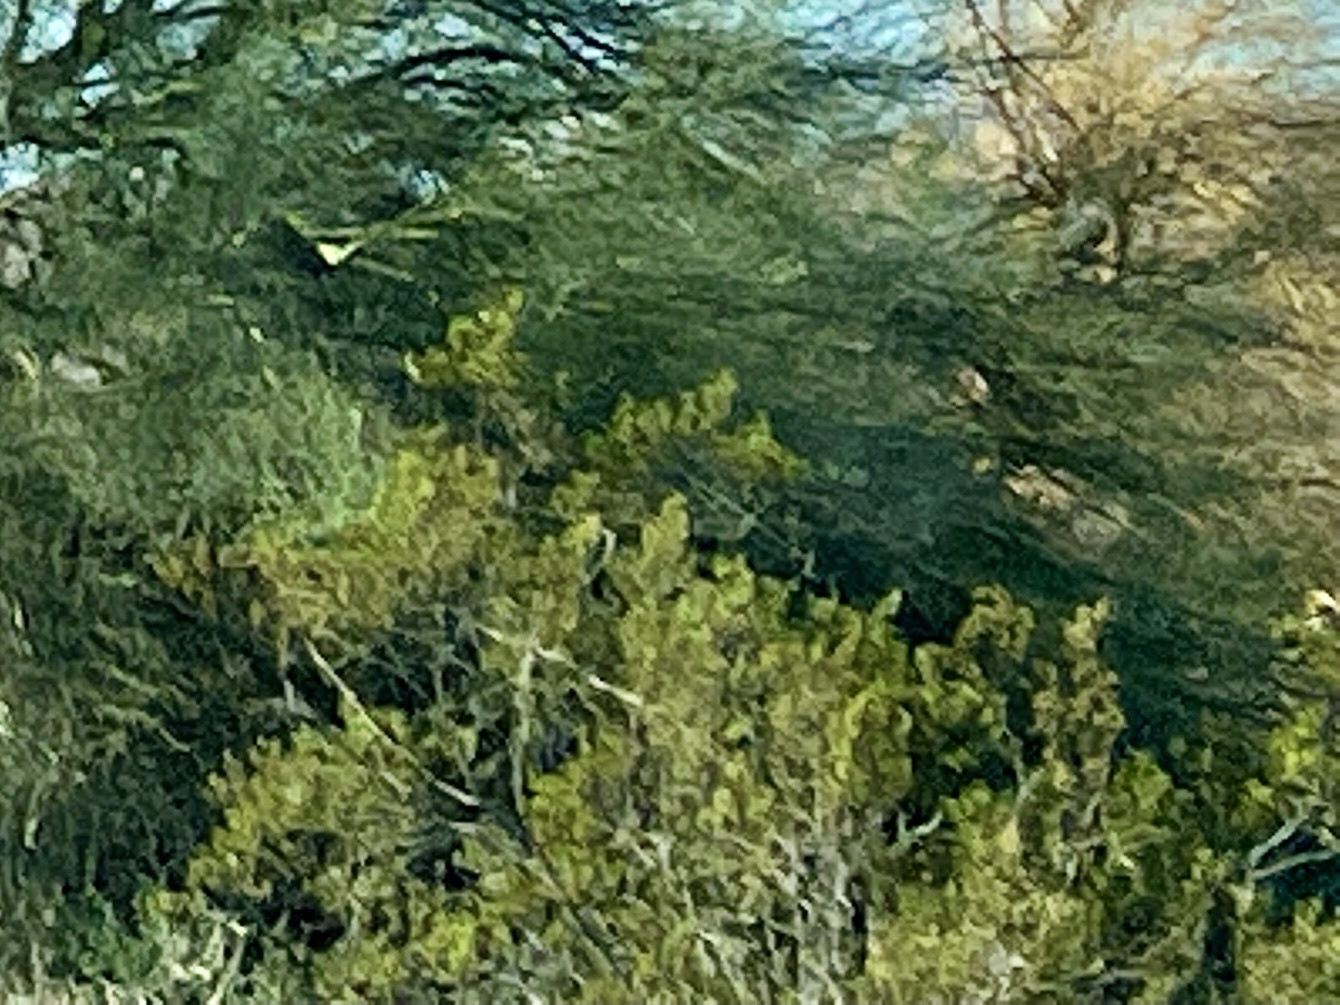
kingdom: Plantae
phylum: Tracheophyta
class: Magnoliopsida
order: Zygophyllales
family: Zygophyllaceae
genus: Larrea
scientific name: Larrea tridentata
